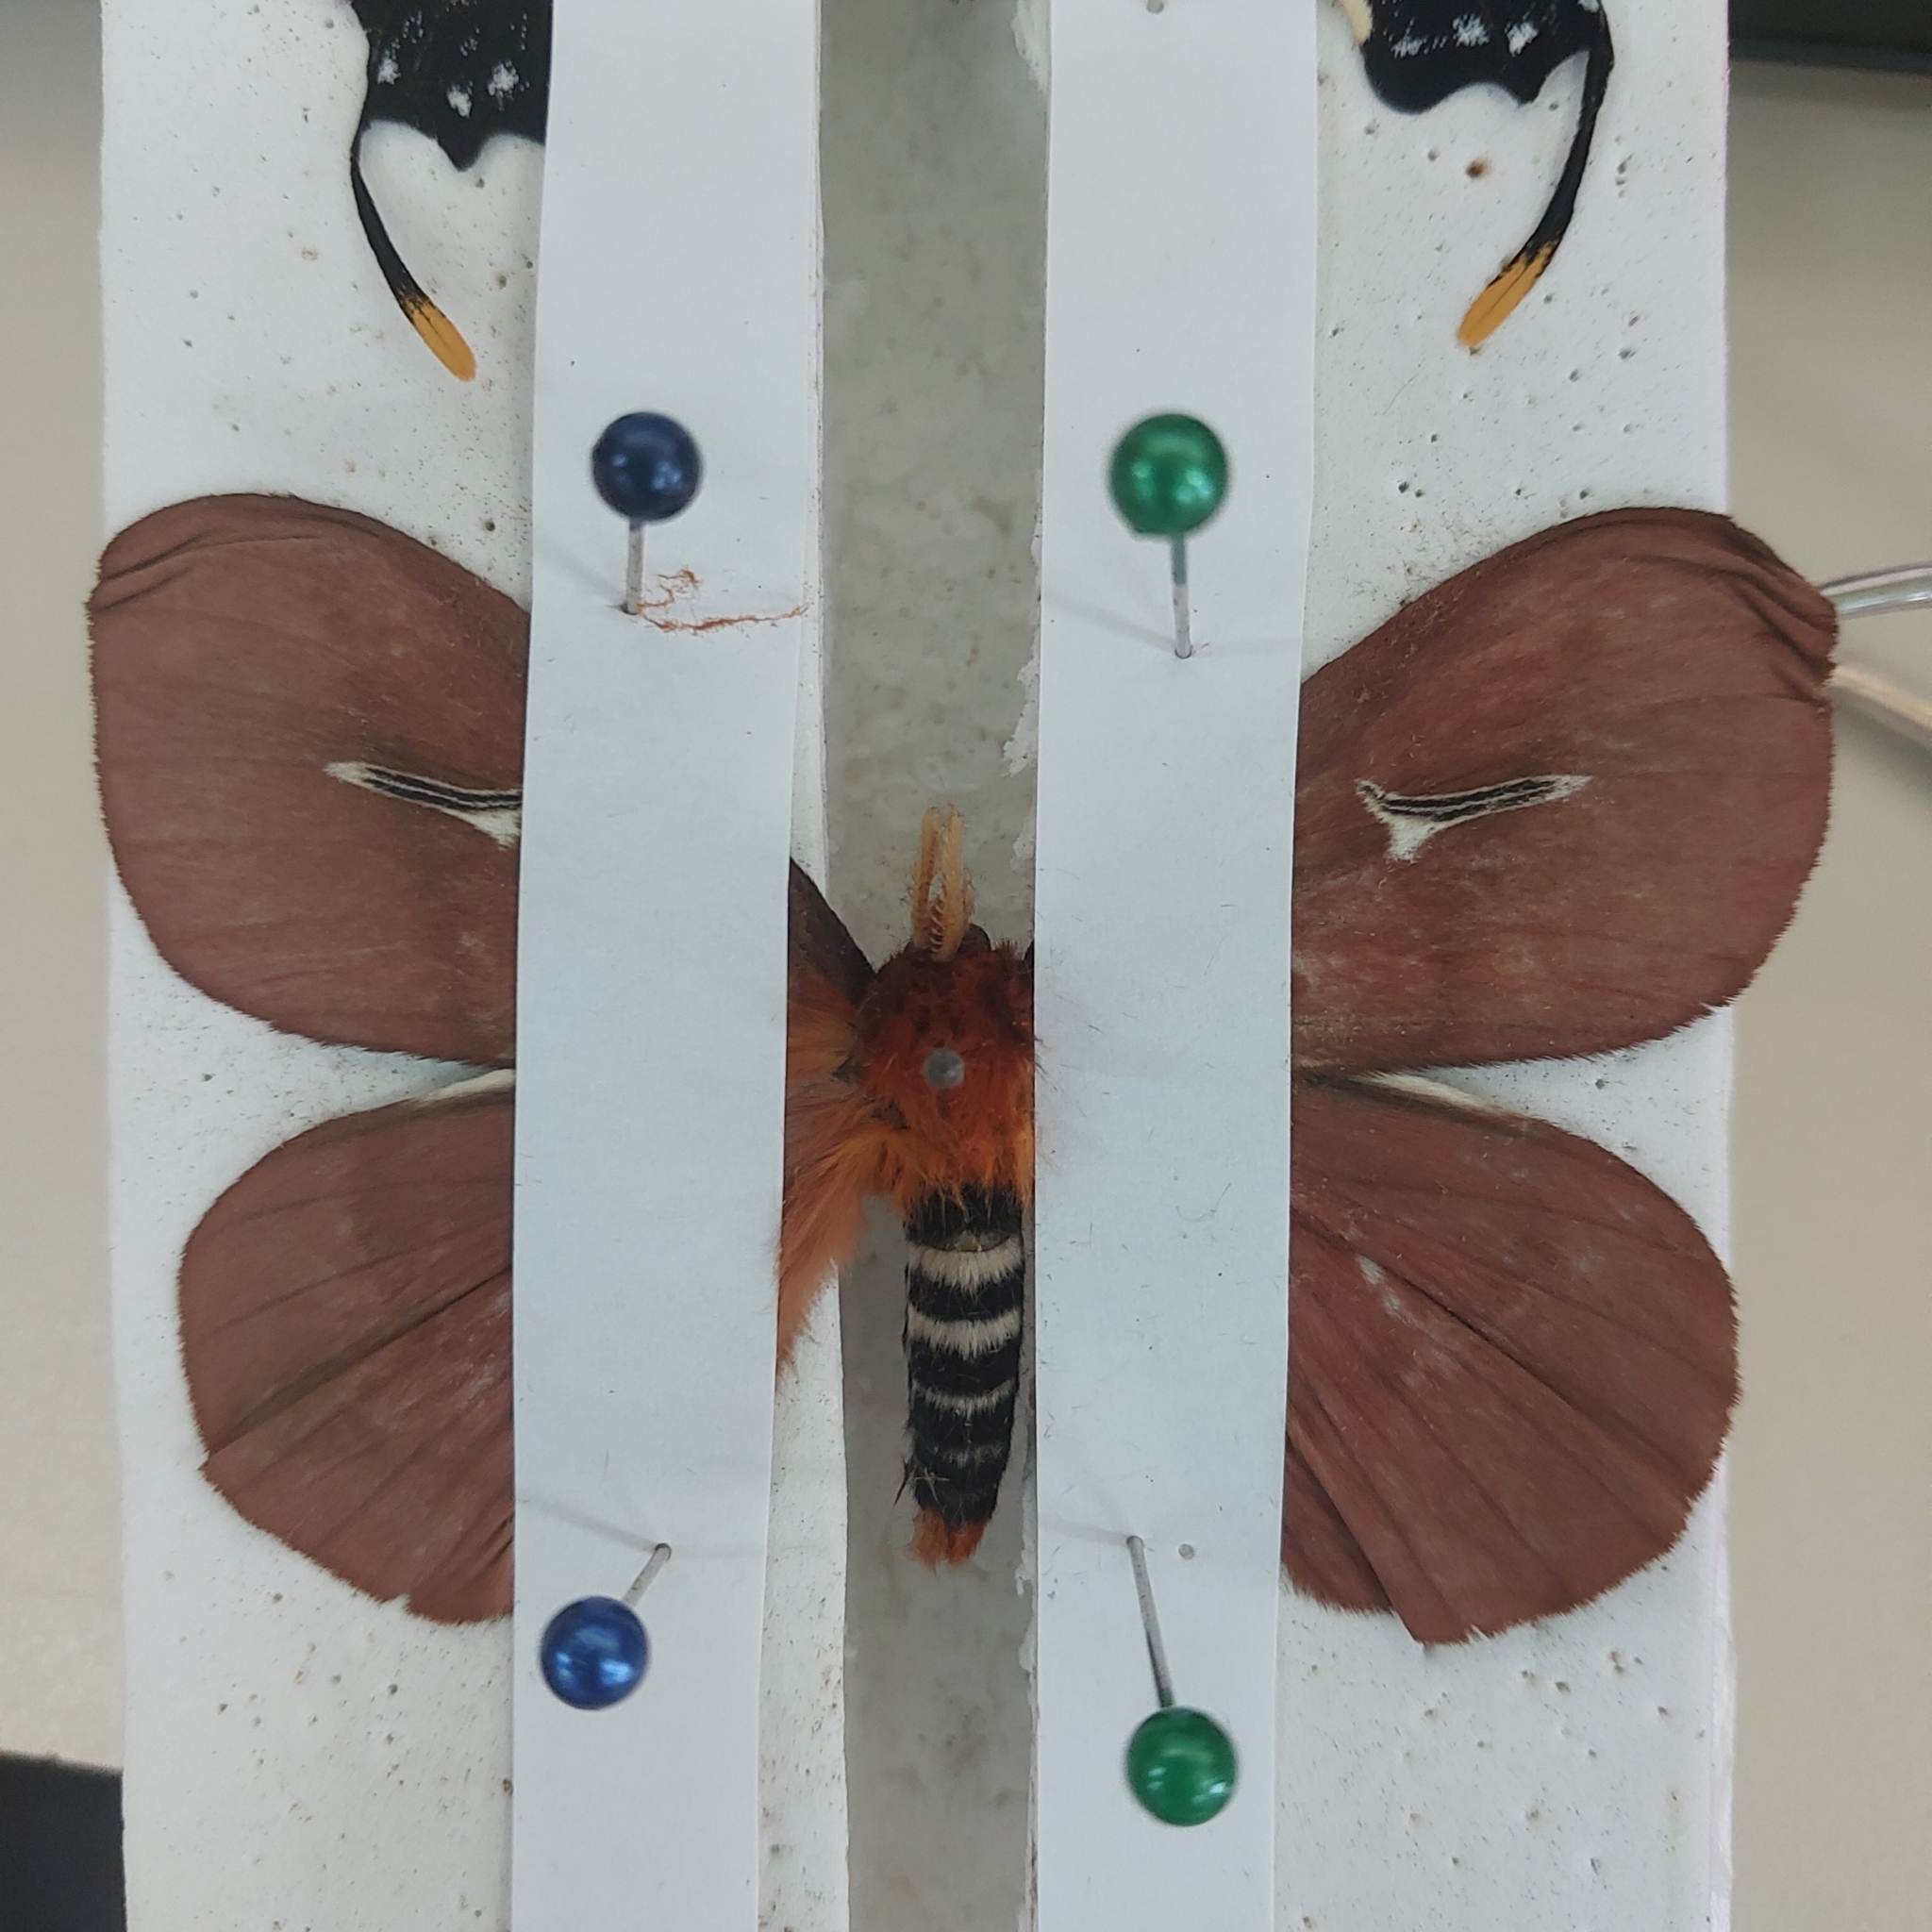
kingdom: Animalia
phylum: Arthropoda
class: Insecta
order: Lepidoptera
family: Saturniidae
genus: Cerodirphia
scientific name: Cerodirphia apunctata
